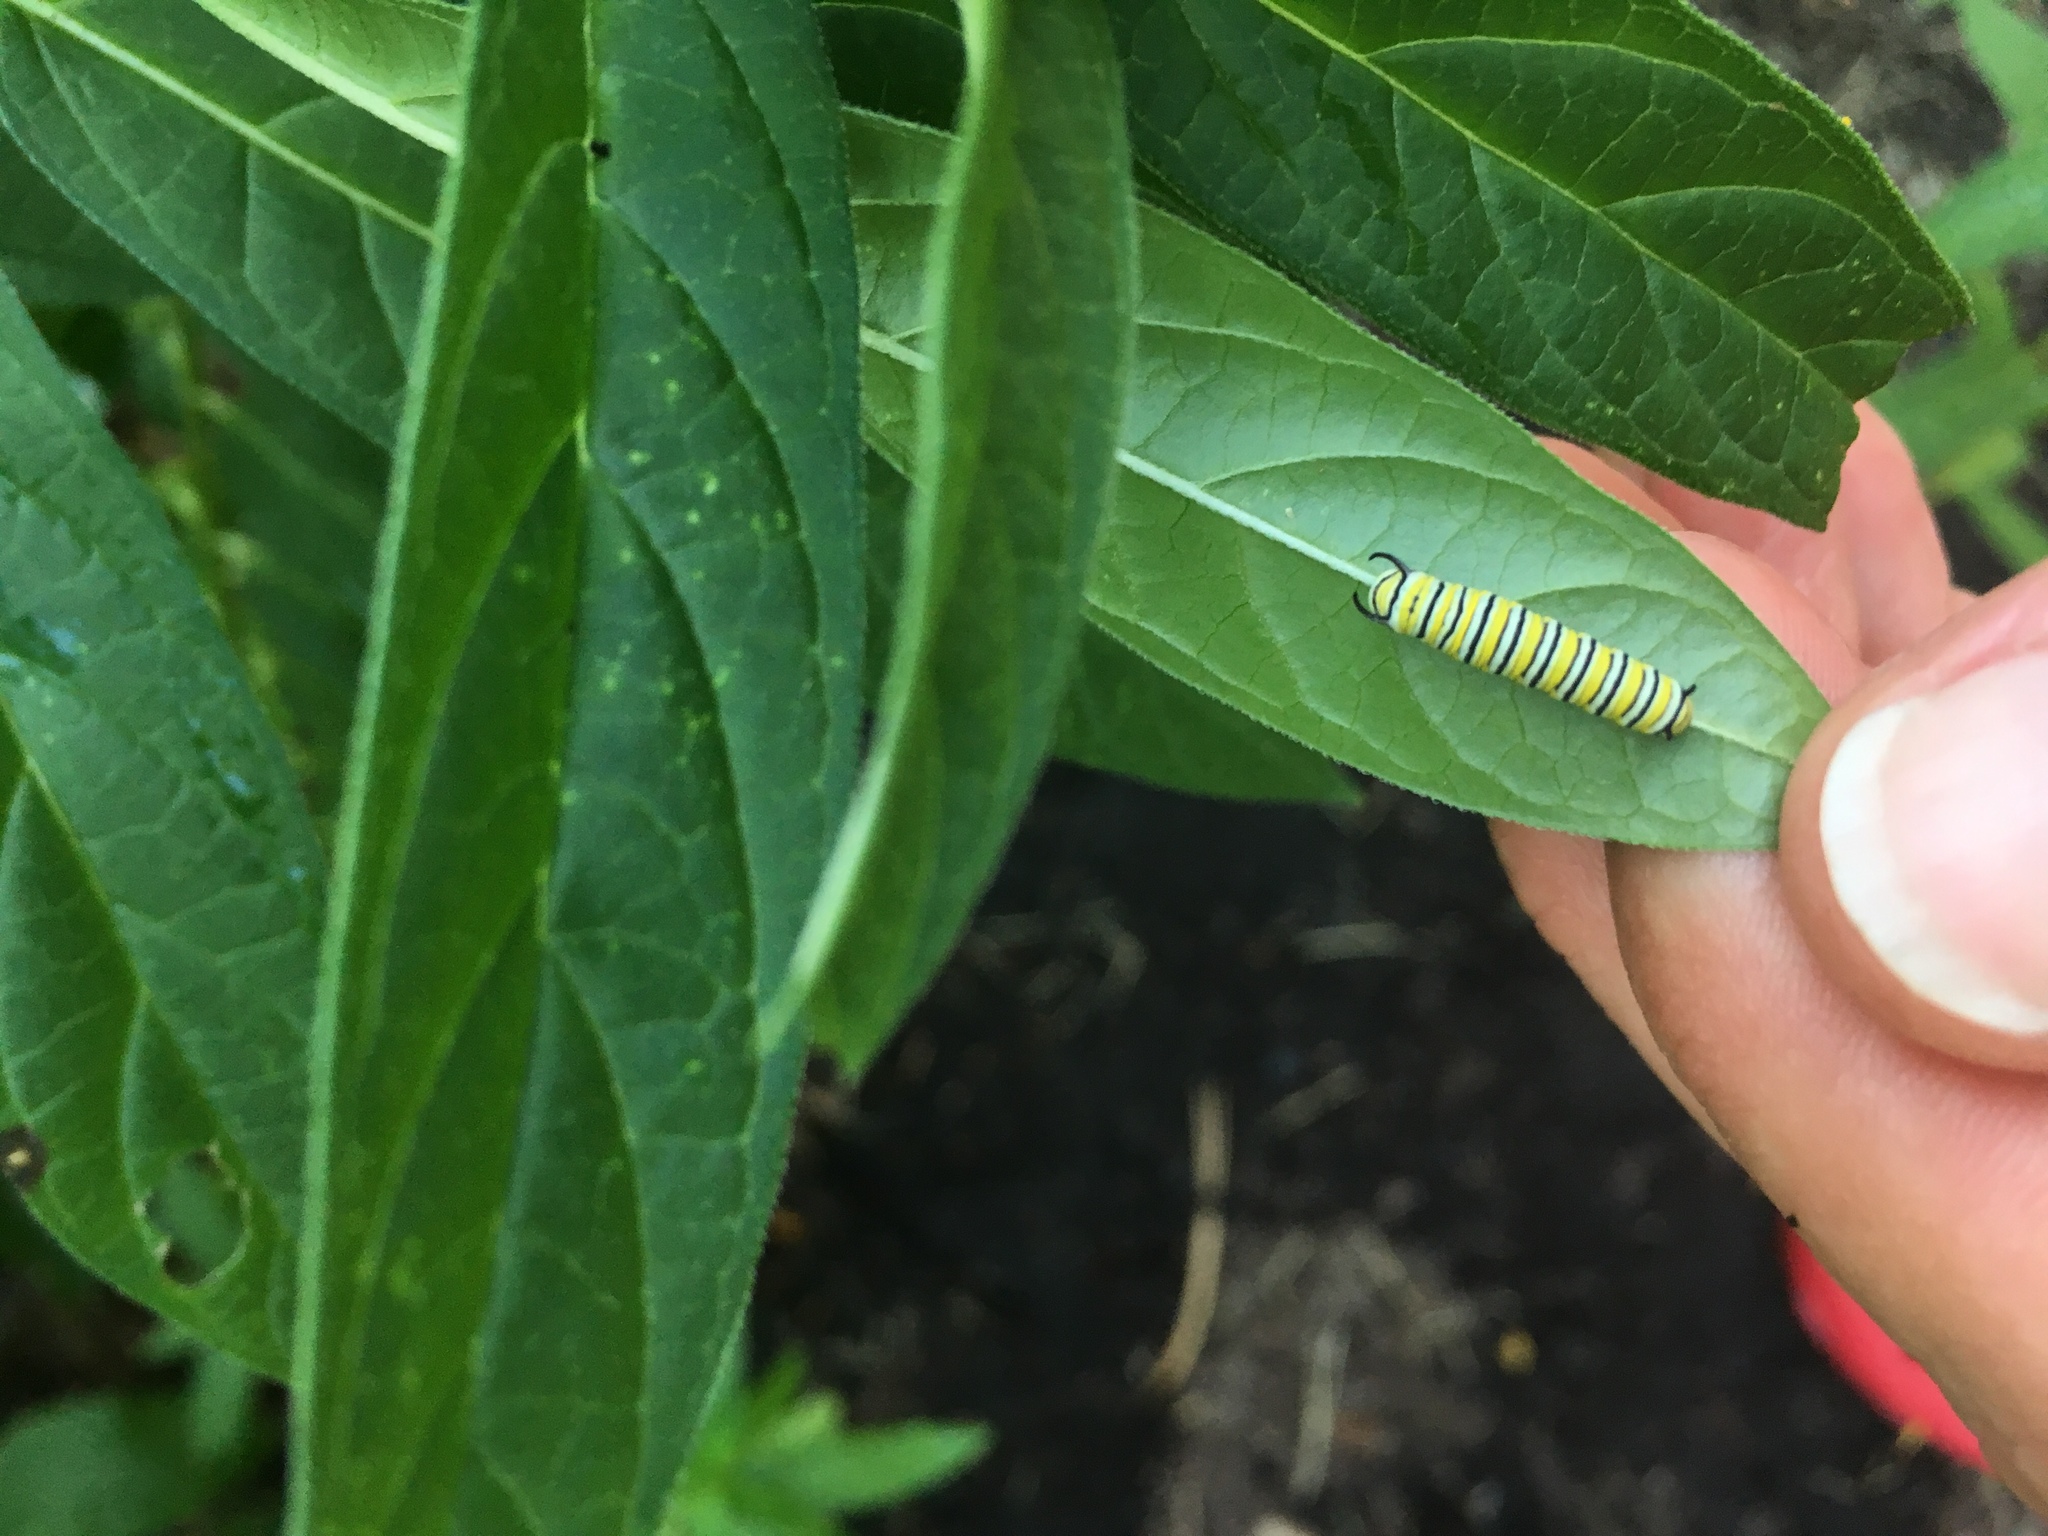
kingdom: Animalia
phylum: Arthropoda
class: Insecta
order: Lepidoptera
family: Nymphalidae
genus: Danaus
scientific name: Danaus plexippus
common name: Monarch
